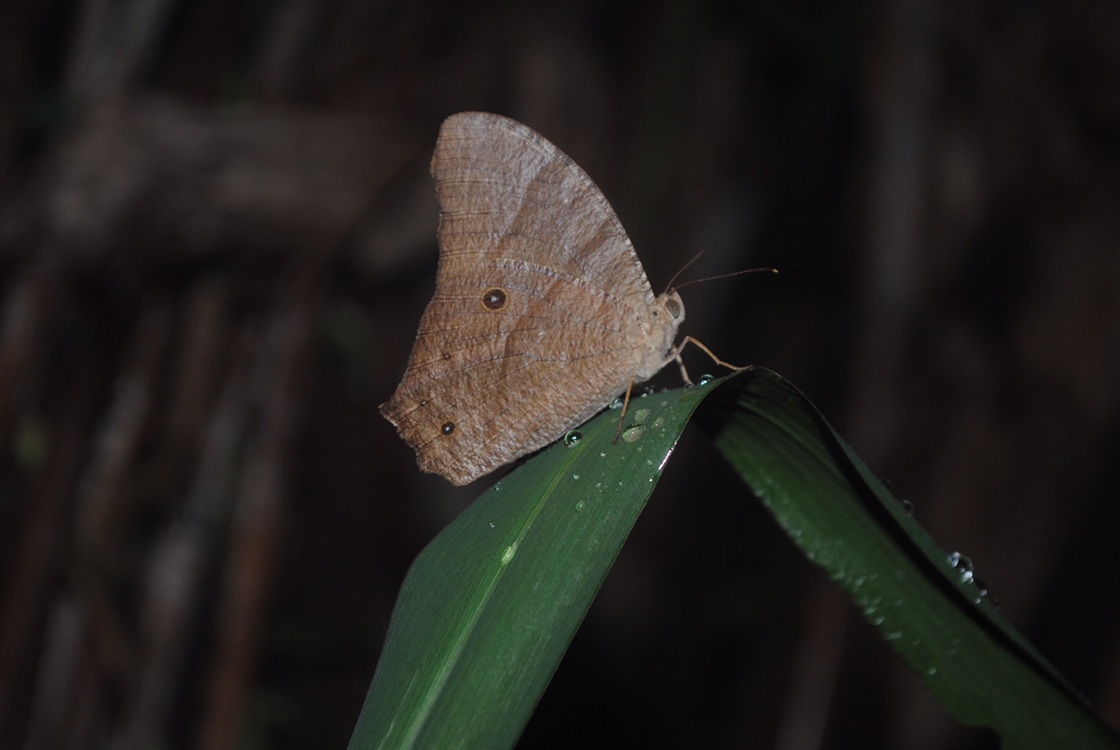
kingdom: Animalia
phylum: Arthropoda
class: Insecta
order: Lepidoptera
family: Nymphalidae
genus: Melanitis
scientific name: Melanitis leda
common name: Twilight brown
